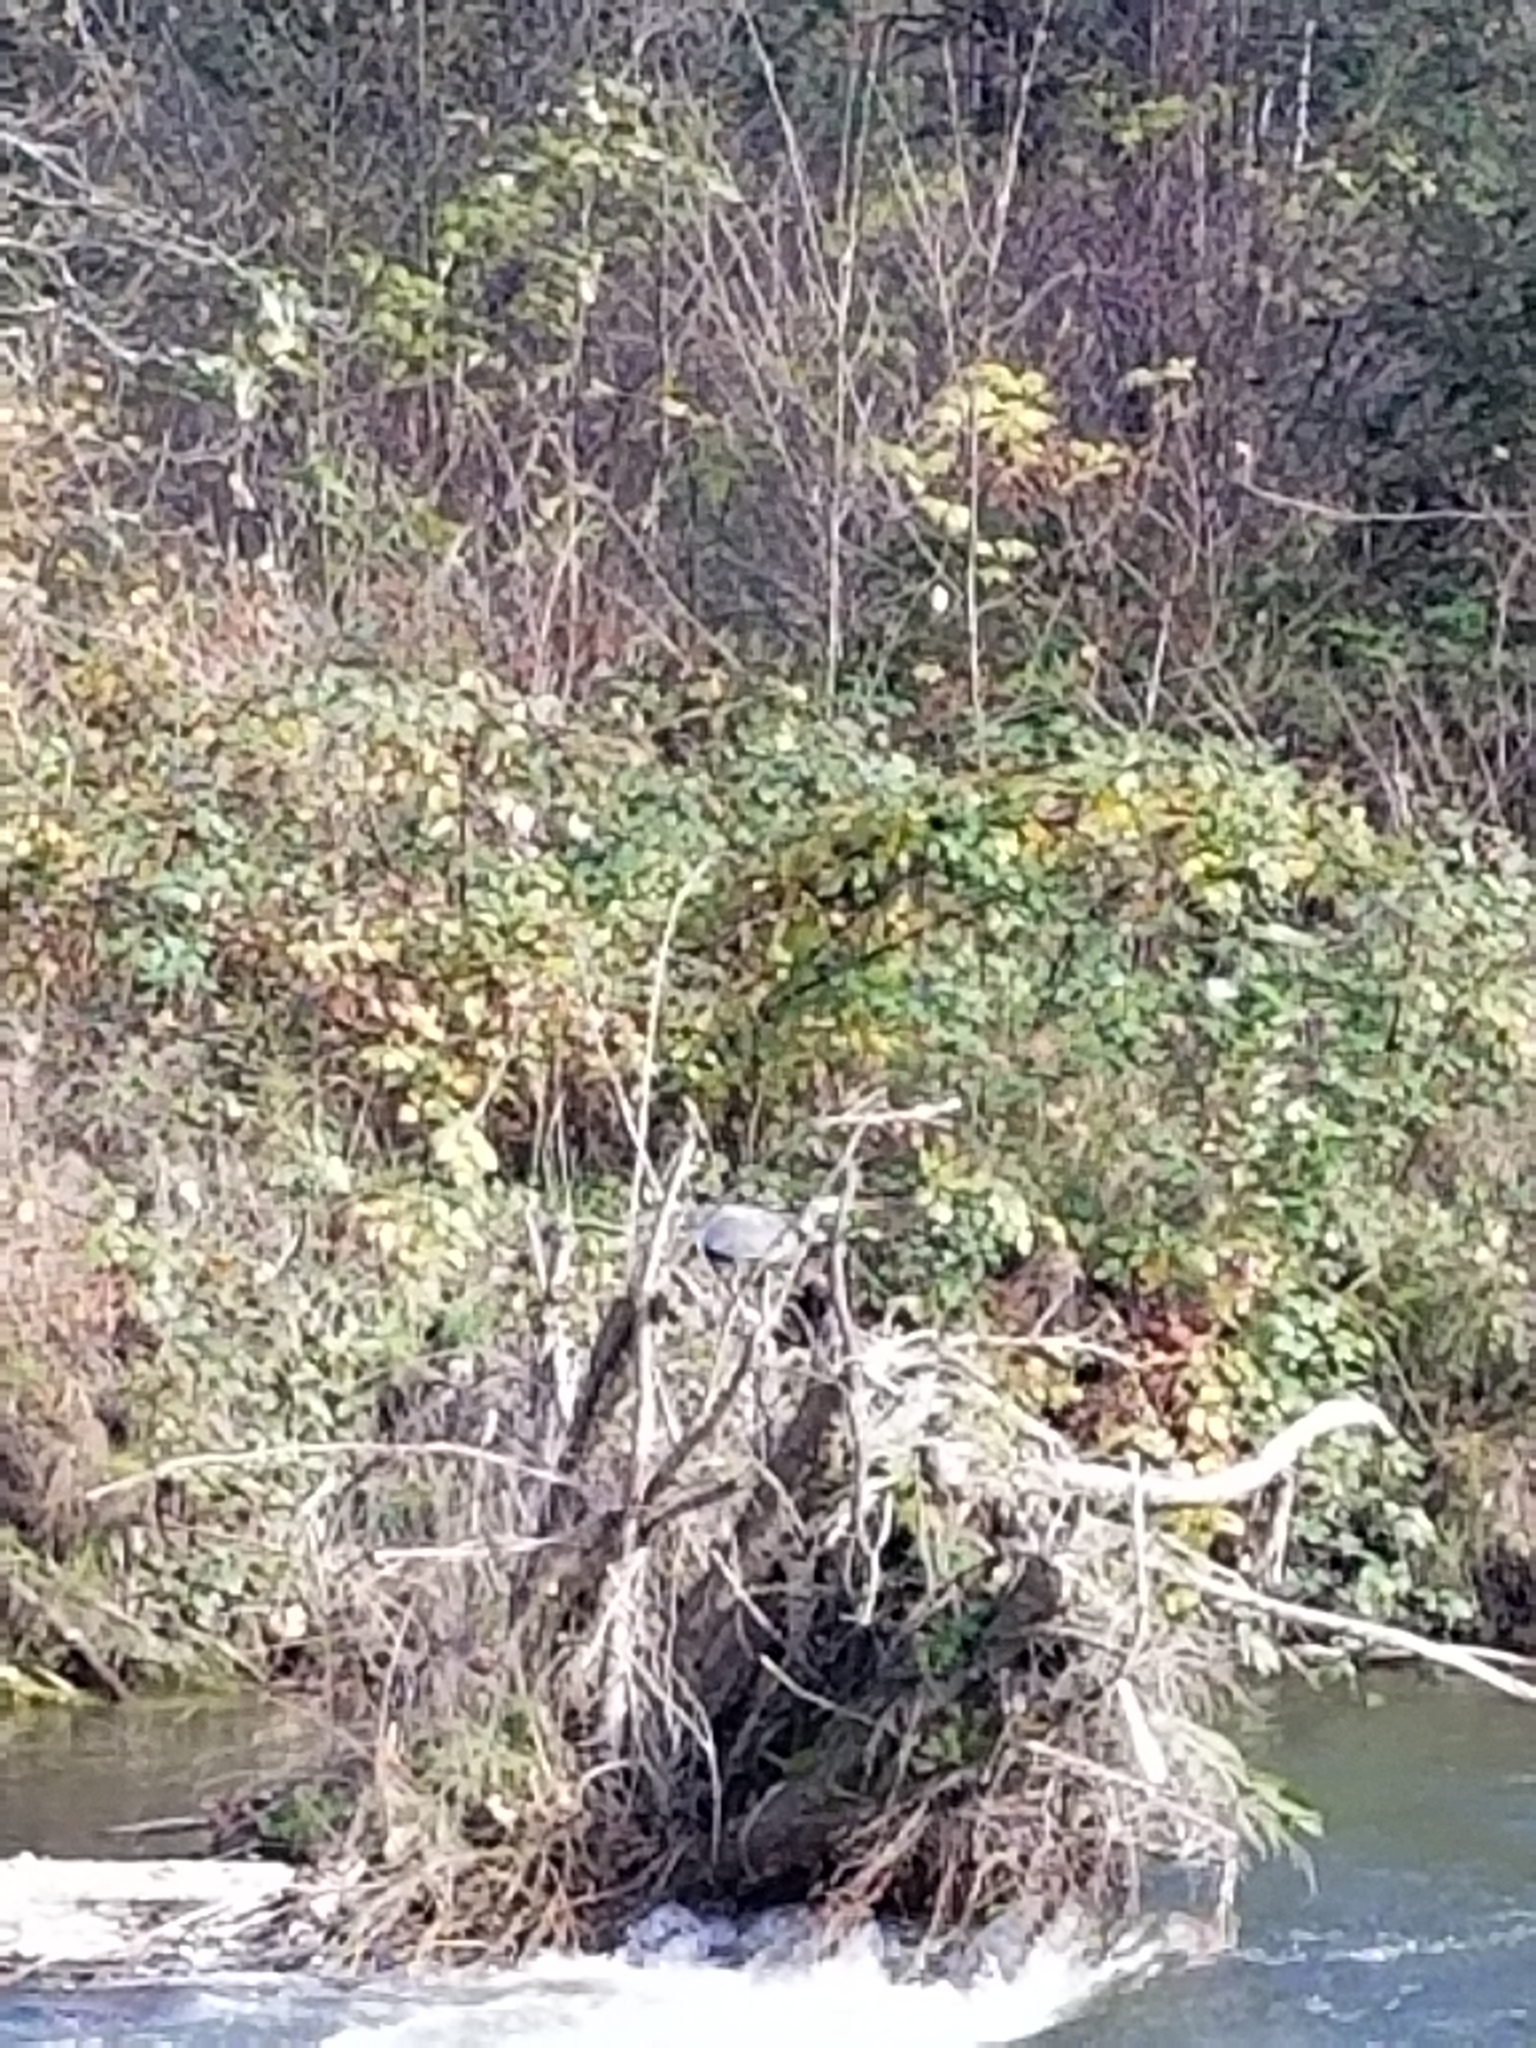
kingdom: Animalia
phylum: Chordata
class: Aves
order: Pelecaniformes
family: Ardeidae
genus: Ardea
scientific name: Ardea herodias
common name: Great blue heron
